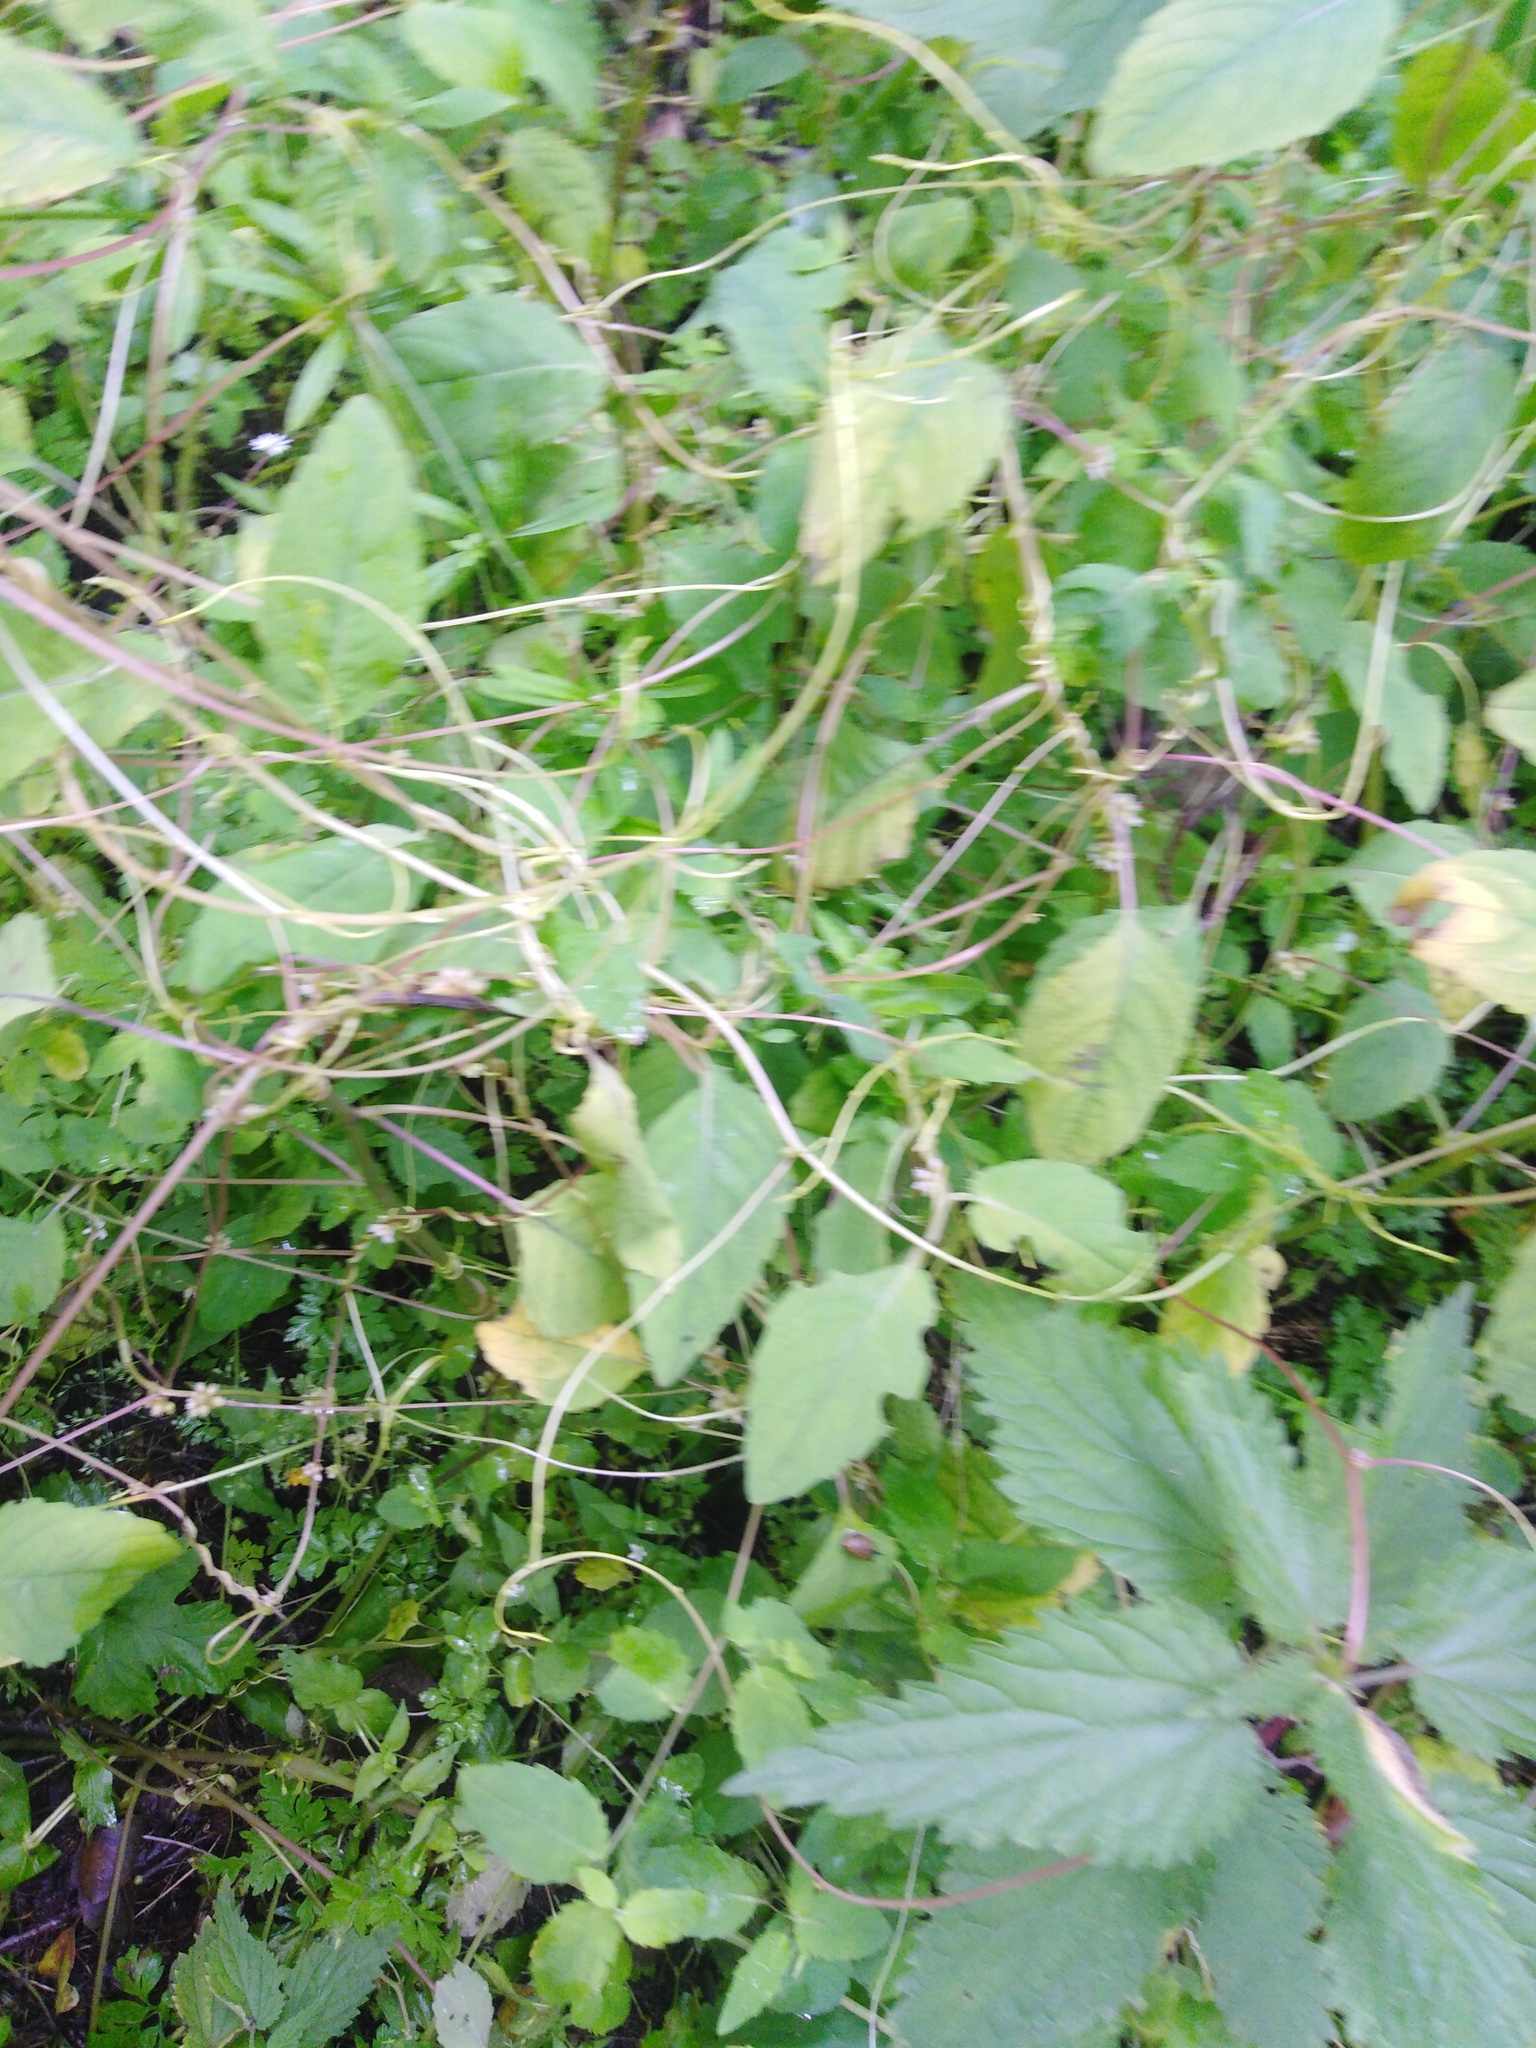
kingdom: Plantae
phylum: Tracheophyta
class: Magnoliopsida
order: Solanales
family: Convolvulaceae
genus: Cuscuta
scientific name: Cuscuta lupuliformis
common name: Hop dodder
